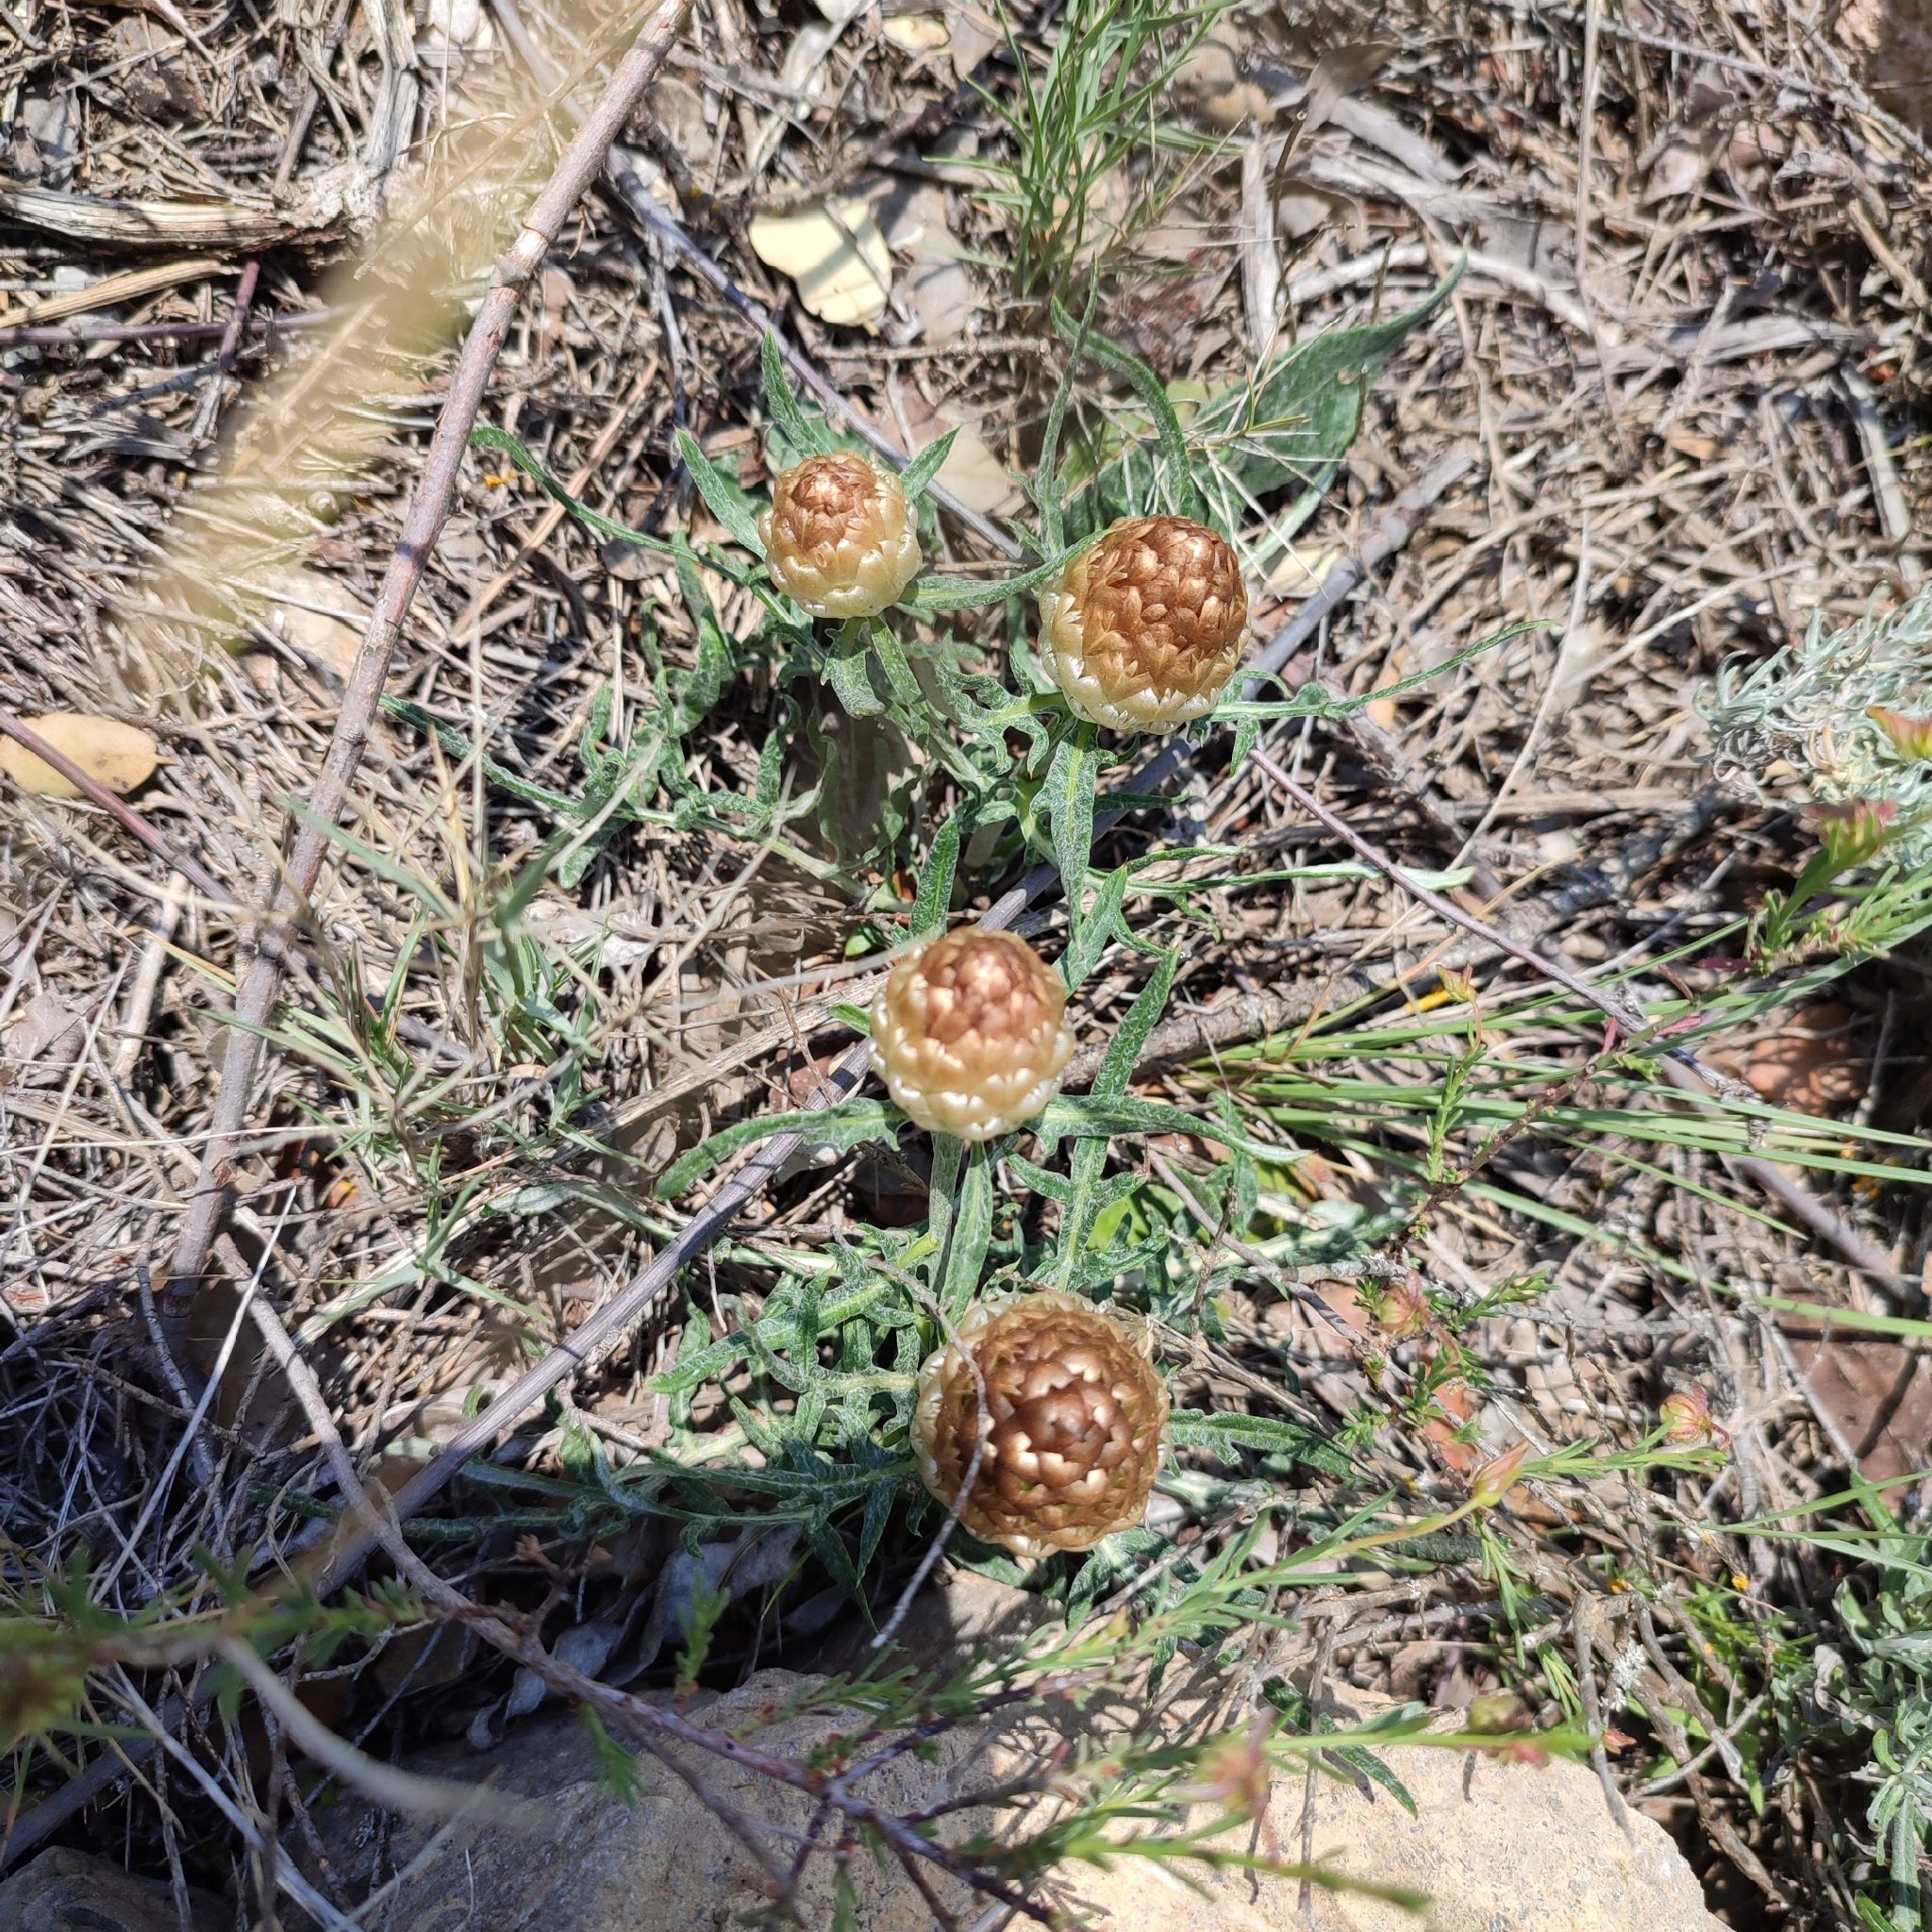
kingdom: Plantae
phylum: Tracheophyta
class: Magnoliopsida
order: Asterales
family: Asteraceae
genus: Leuzea
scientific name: Leuzea conifera
